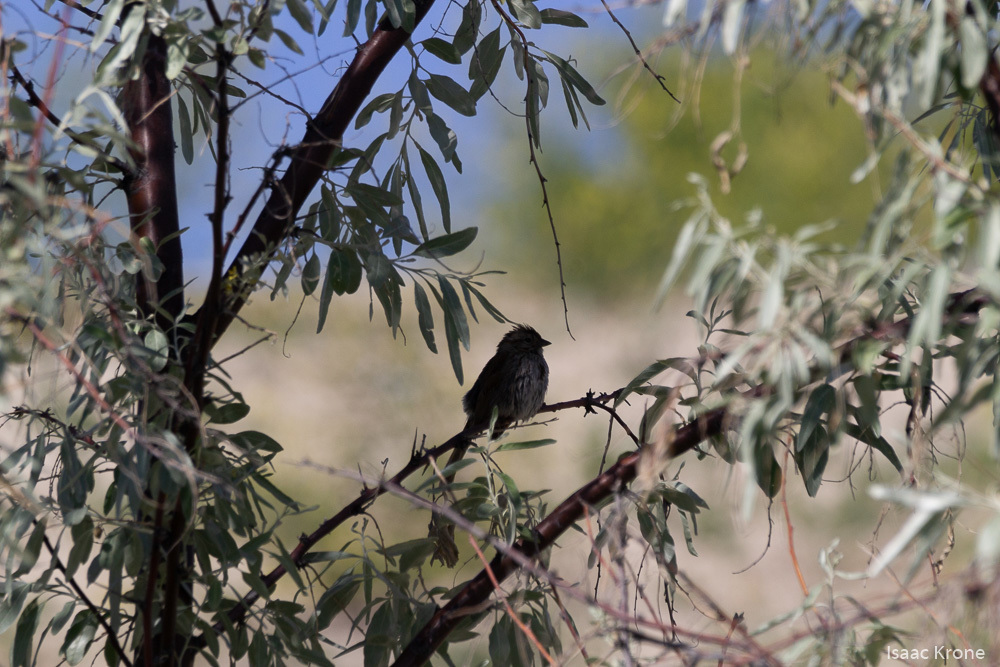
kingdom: Animalia
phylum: Chordata
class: Aves
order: Passeriformes
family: Passerellidae
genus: Melospiza
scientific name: Melospiza melodia
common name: Song sparrow
